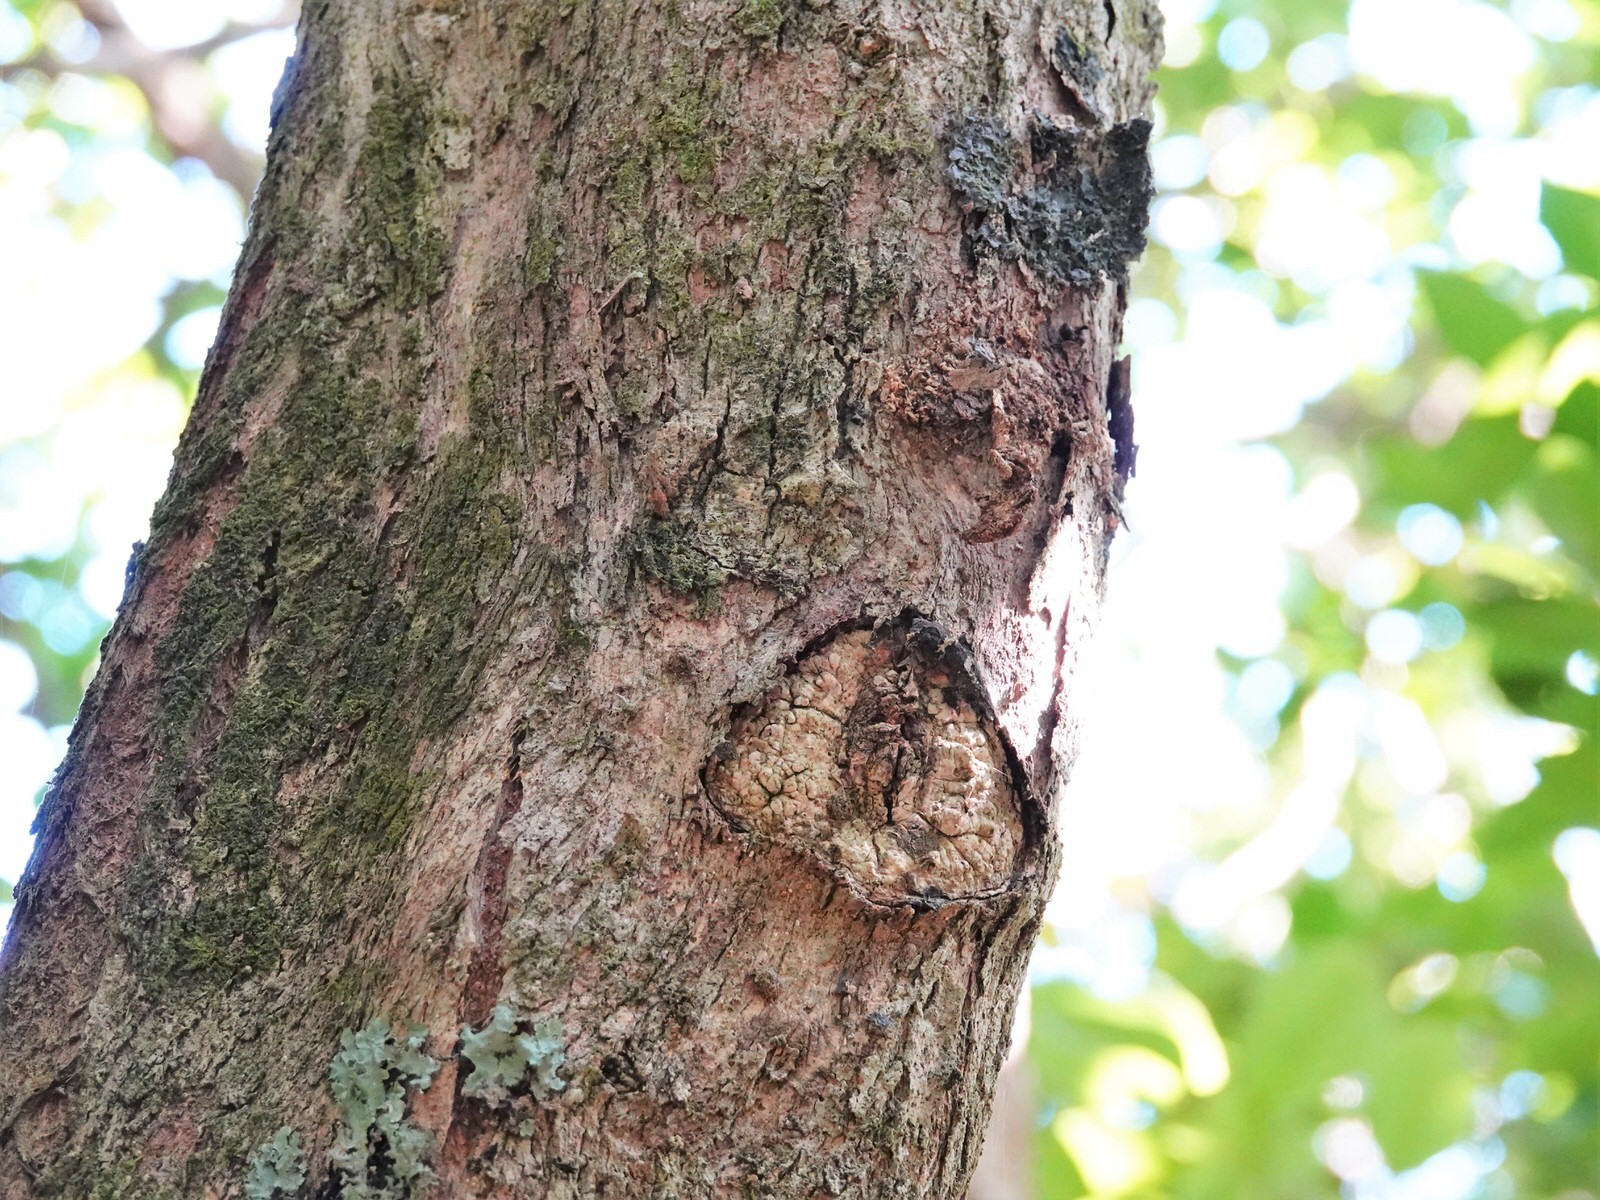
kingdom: Animalia
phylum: Arthropoda
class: Insecta
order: Lepidoptera
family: Hepialidae
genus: Aenetus
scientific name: Aenetus virescens
